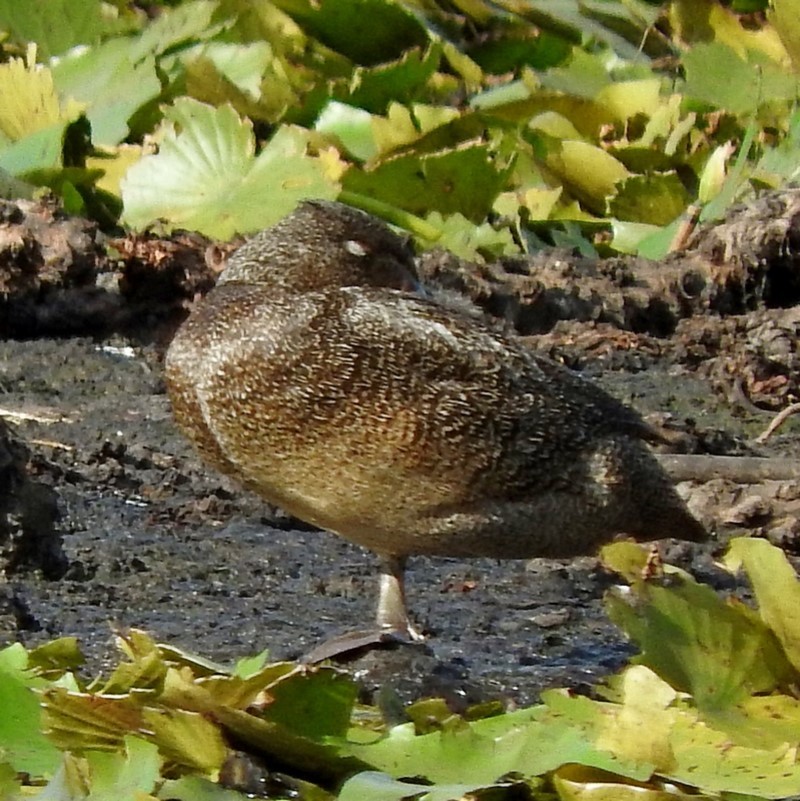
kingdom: Animalia
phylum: Chordata
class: Aves
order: Anseriformes
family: Anatidae
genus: Stictonetta
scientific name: Stictonetta naevosa
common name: Freckled duck
